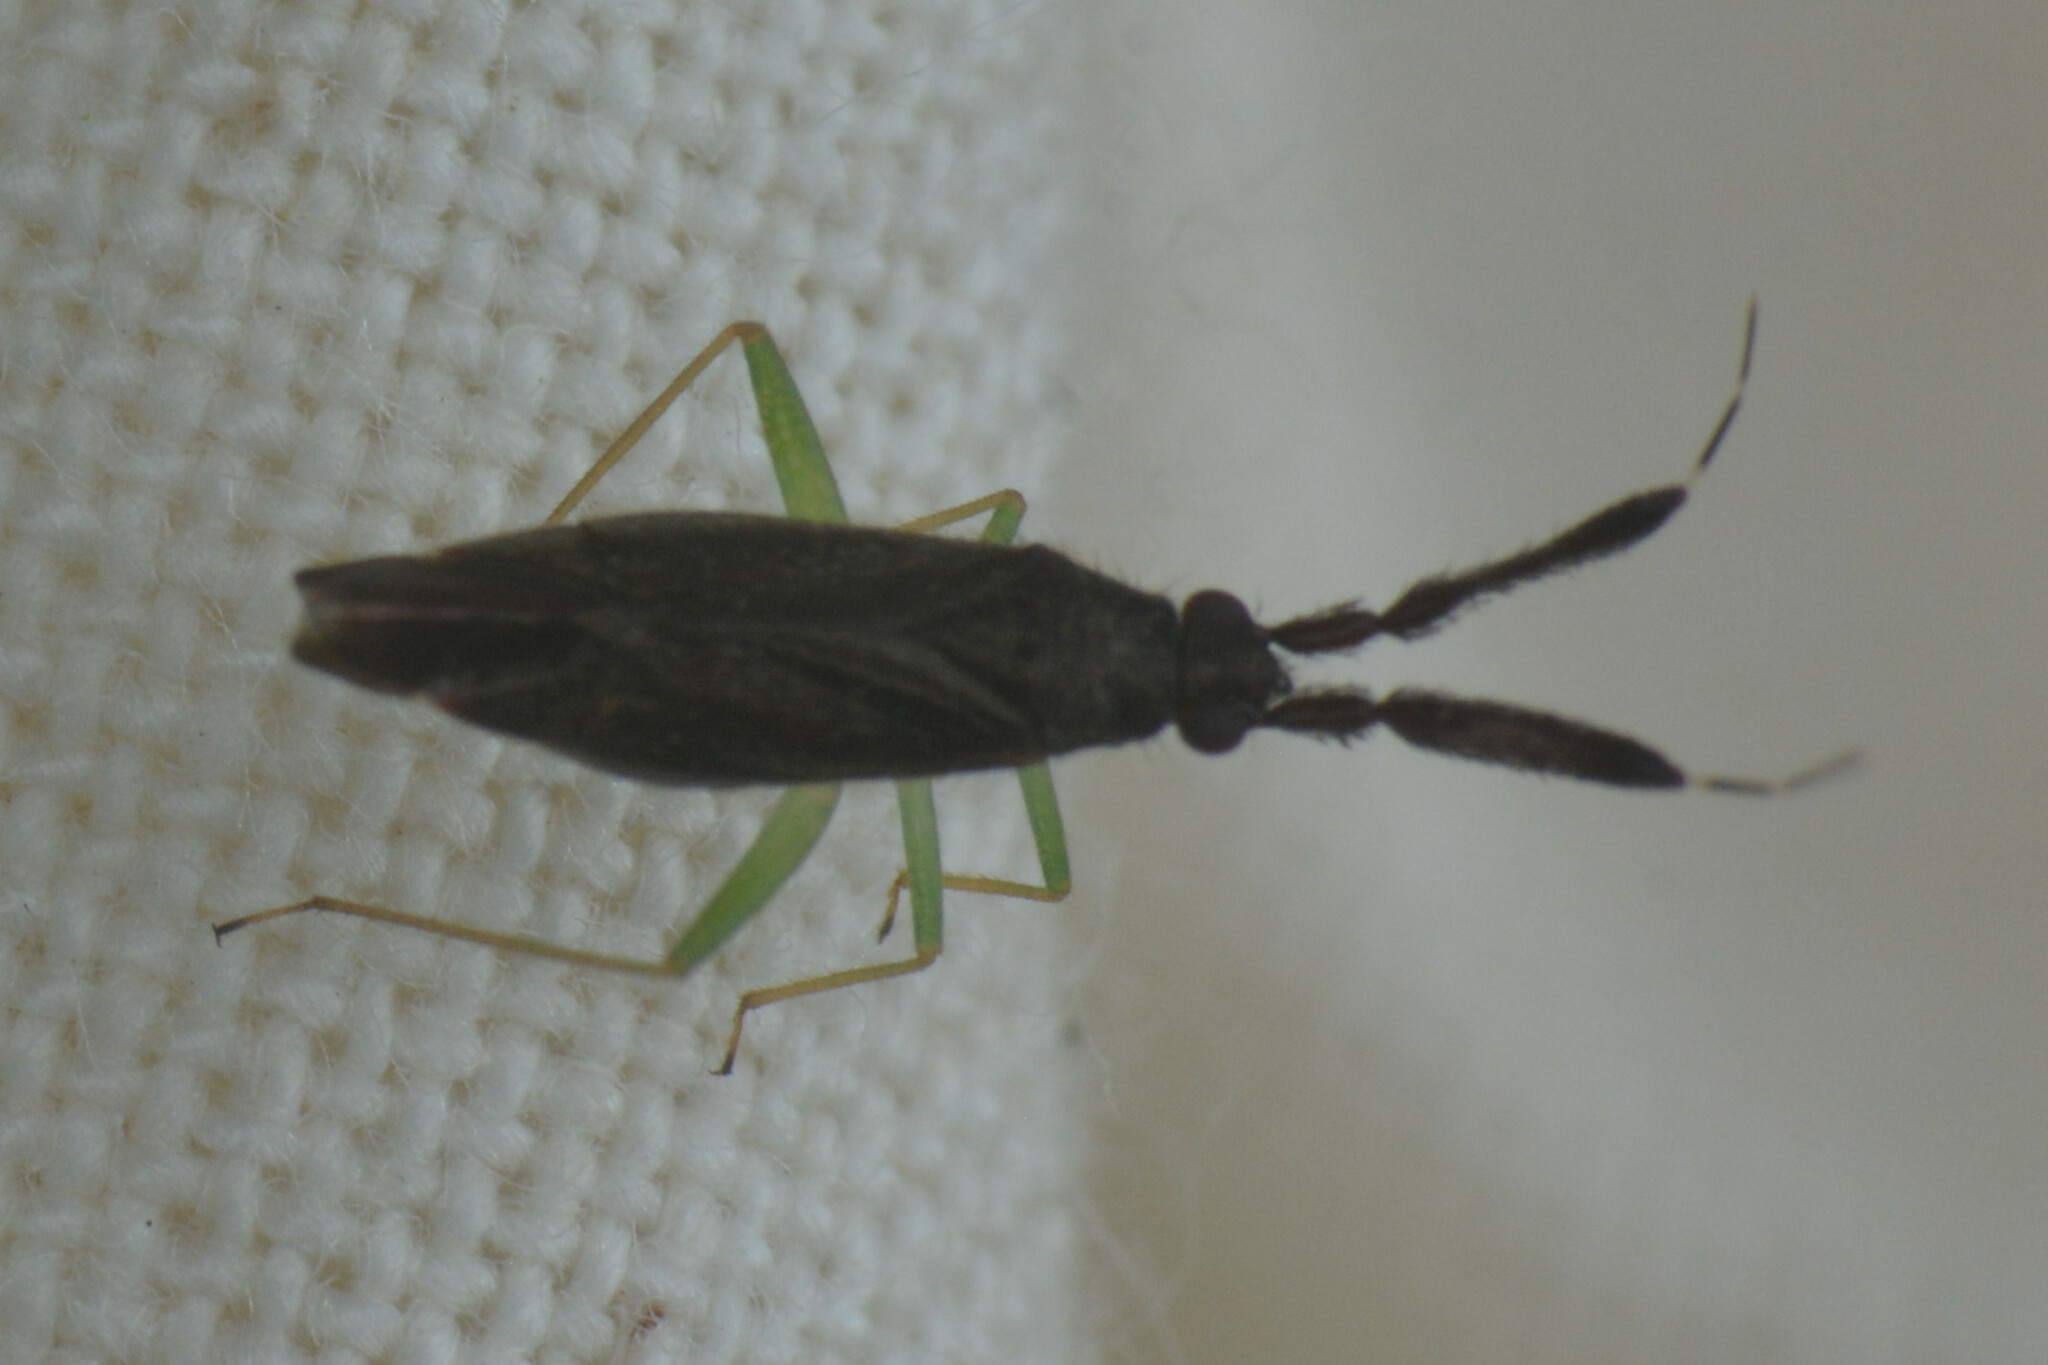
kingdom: Animalia
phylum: Arthropoda
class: Insecta
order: Hemiptera
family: Miridae
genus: Heterotoma
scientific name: Heterotoma planicornis
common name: Plant bug
